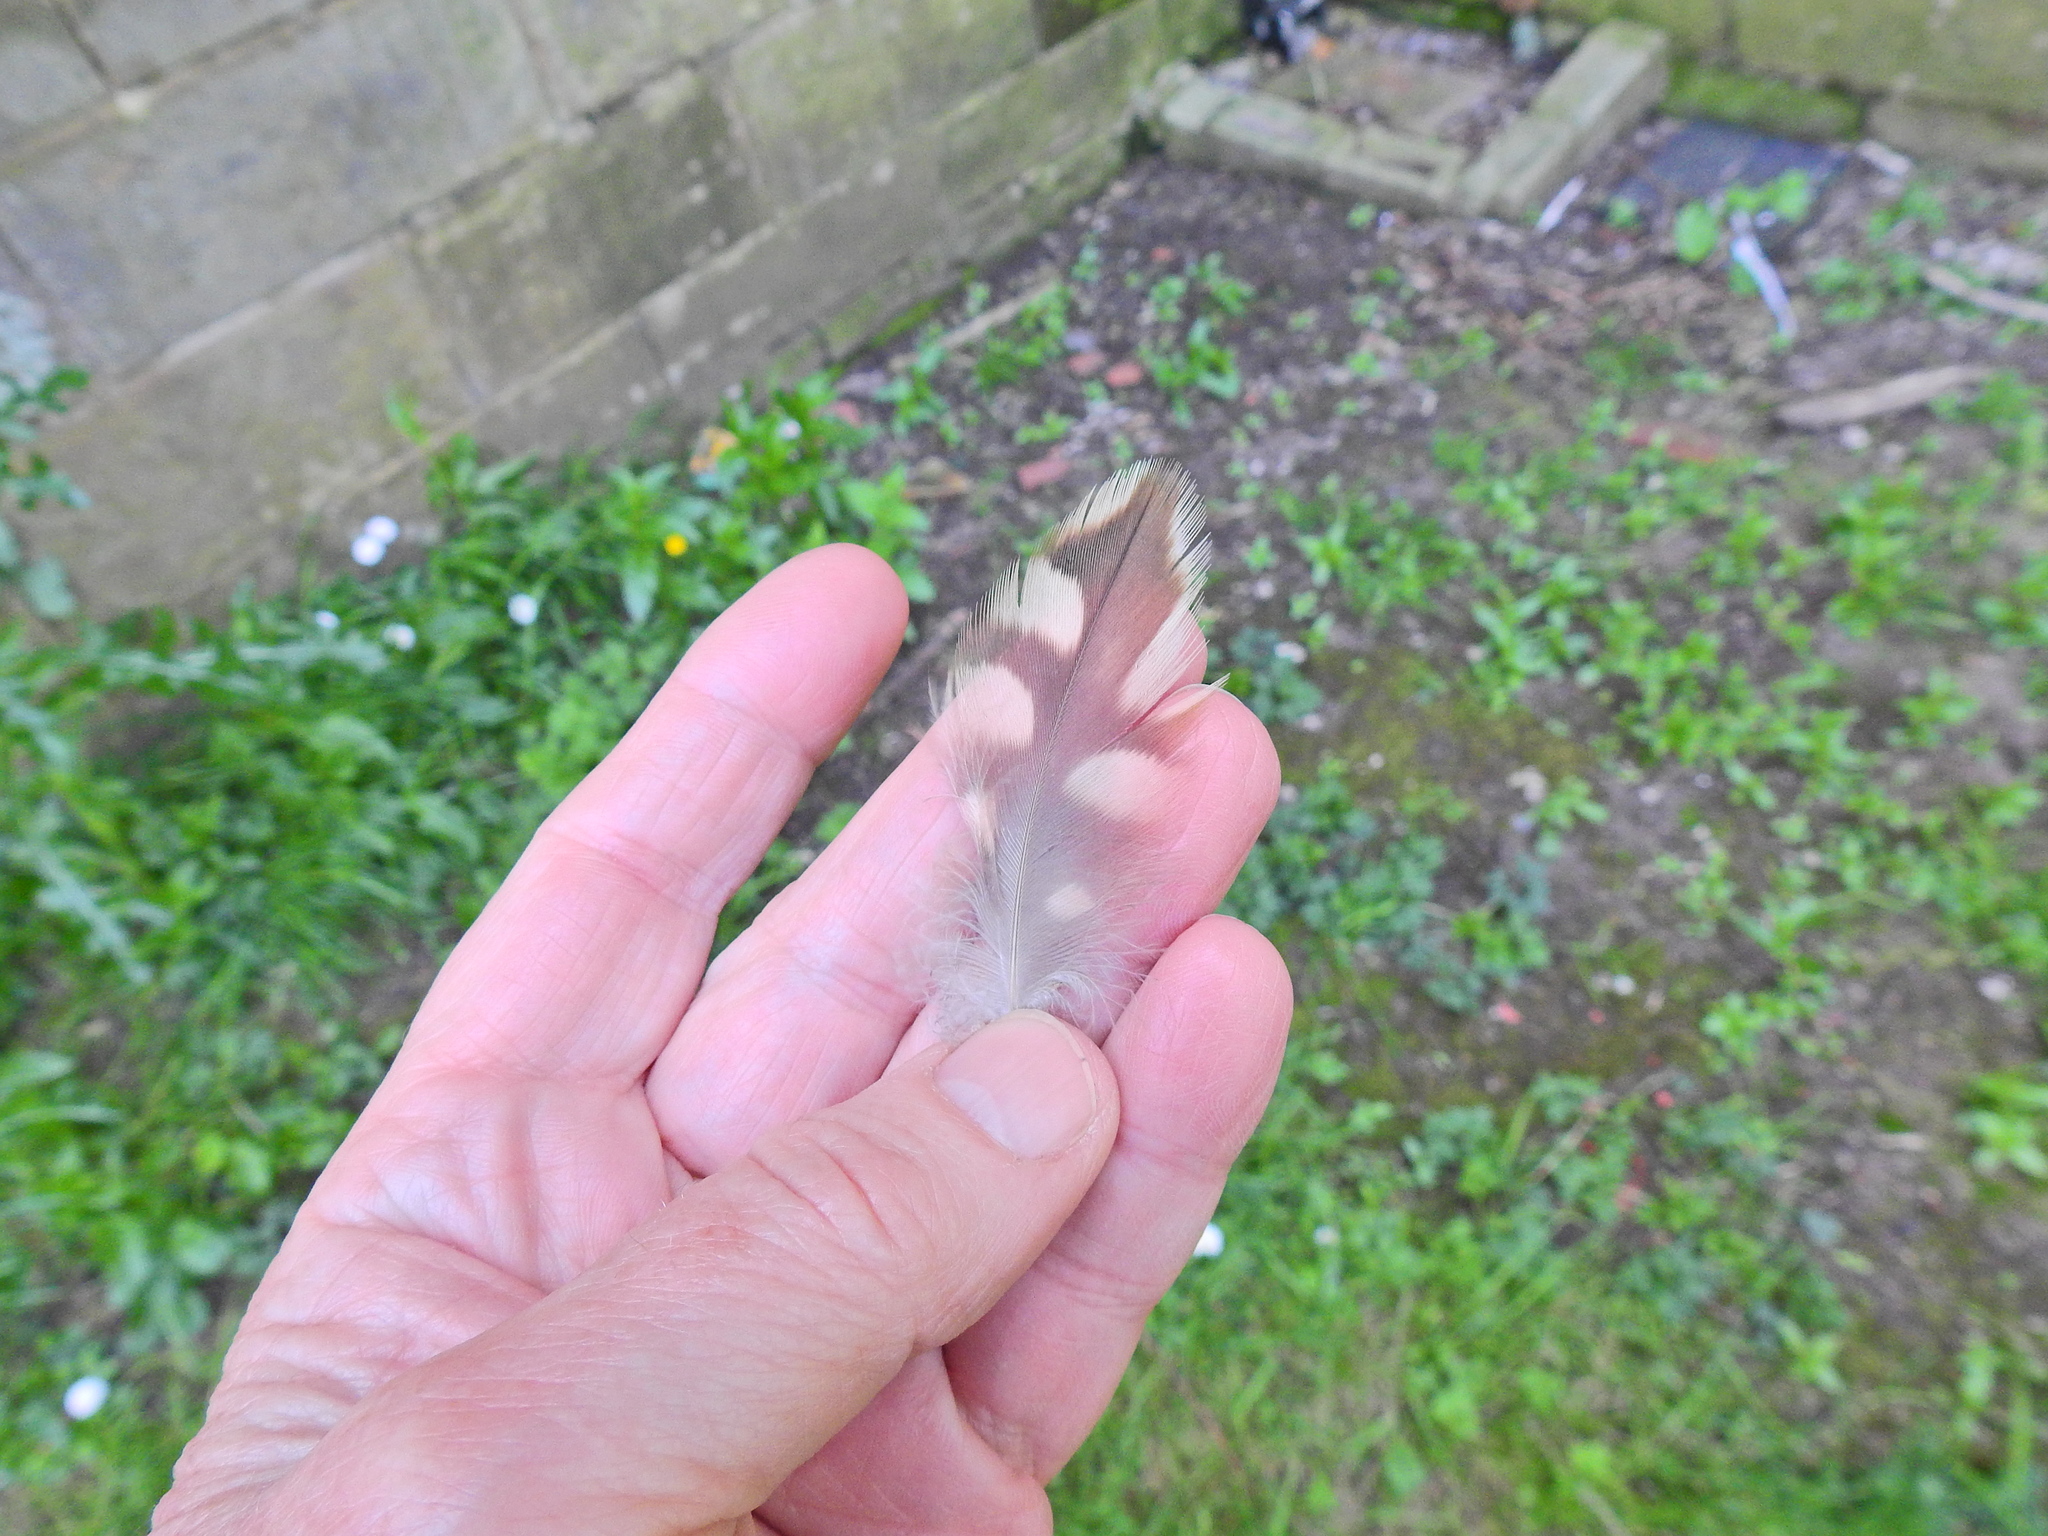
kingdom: Animalia
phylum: Chordata
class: Aves
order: Falconiformes
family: Falconidae
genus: Falco
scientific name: Falco peregrinus
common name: Peregrine falcon
